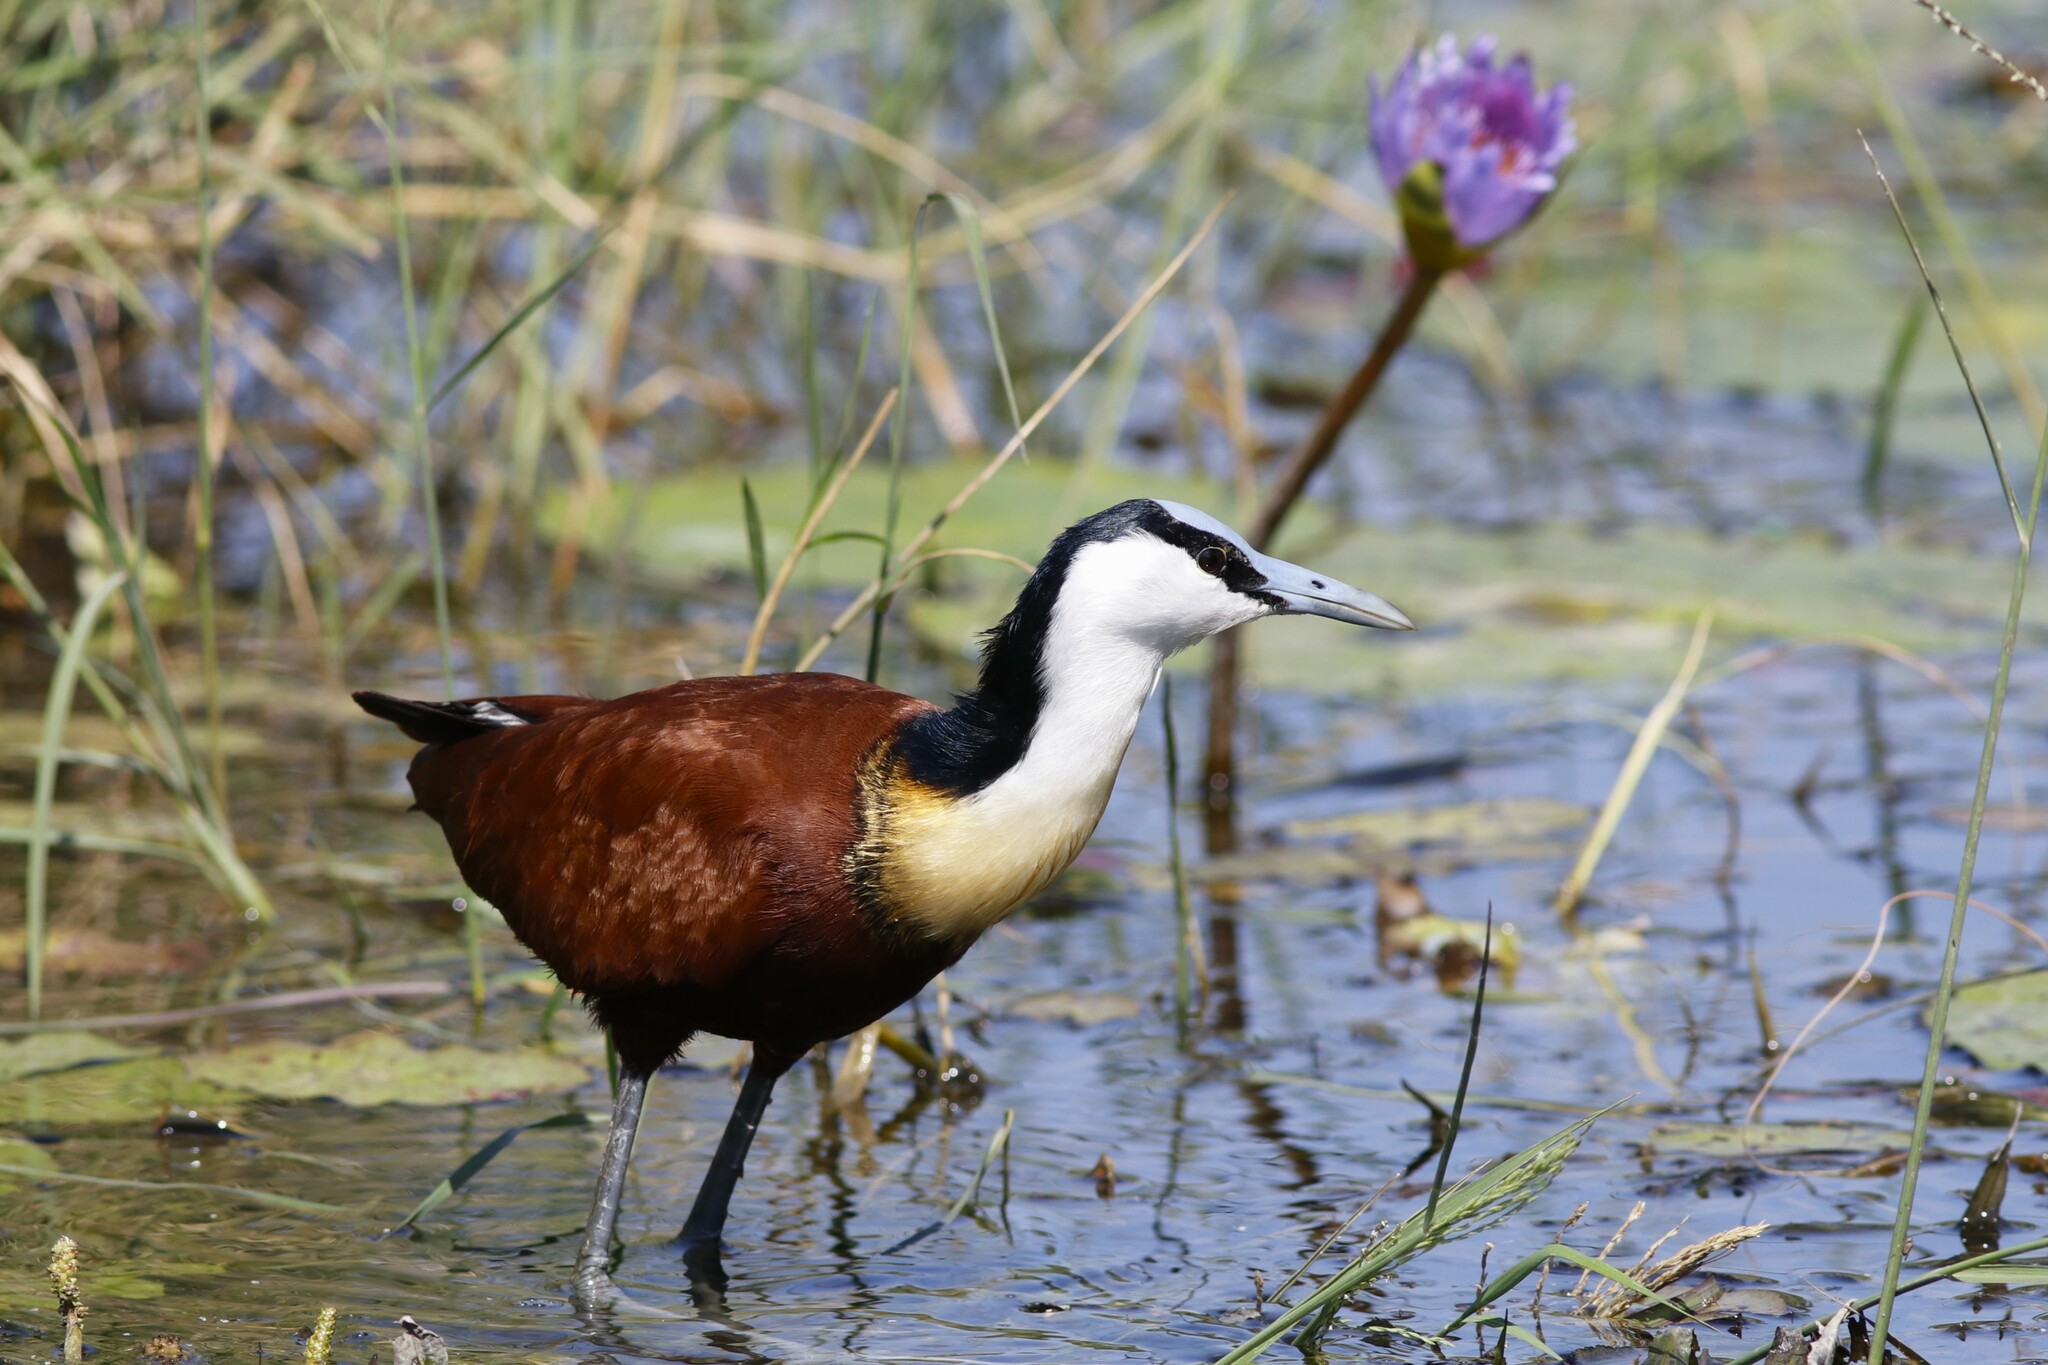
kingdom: Animalia
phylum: Chordata
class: Aves
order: Charadriiformes
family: Jacanidae
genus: Actophilornis
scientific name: Actophilornis africanus
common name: African jacana
